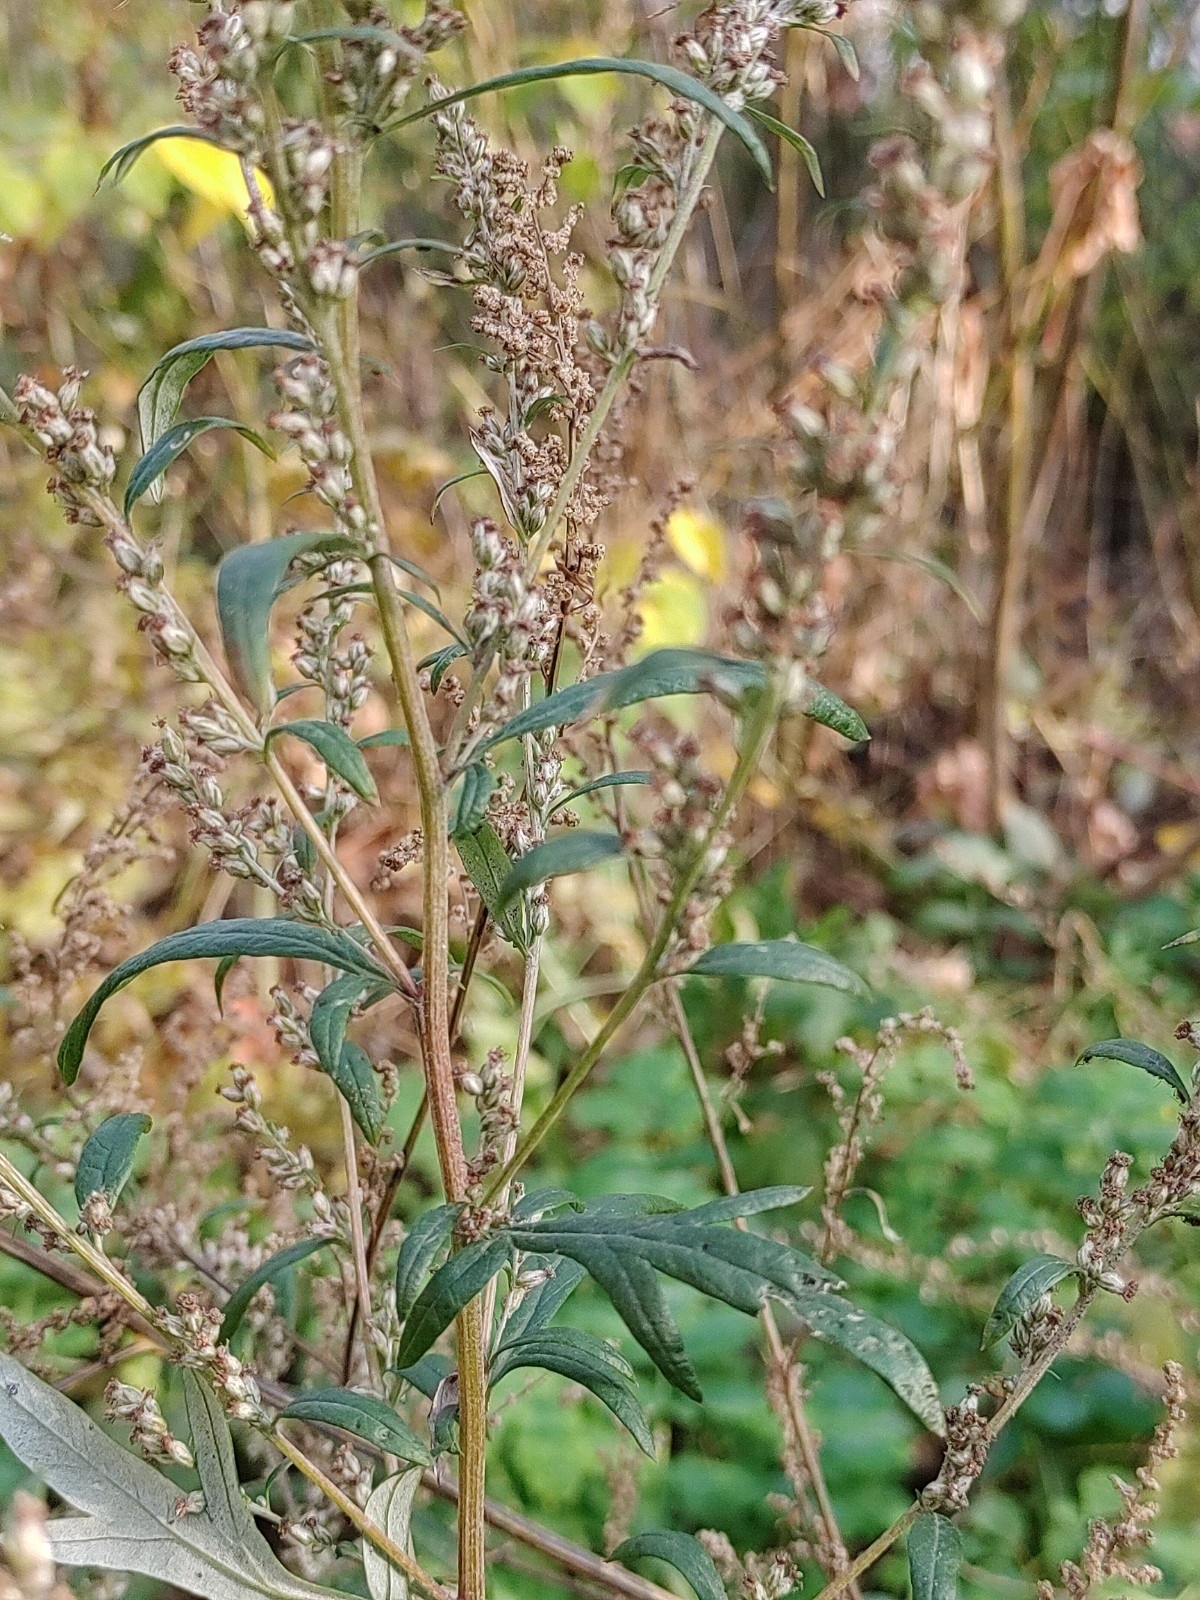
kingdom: Plantae
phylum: Tracheophyta
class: Magnoliopsida
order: Asterales
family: Asteraceae
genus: Artemisia
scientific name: Artemisia vulgaris
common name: Mugwort
